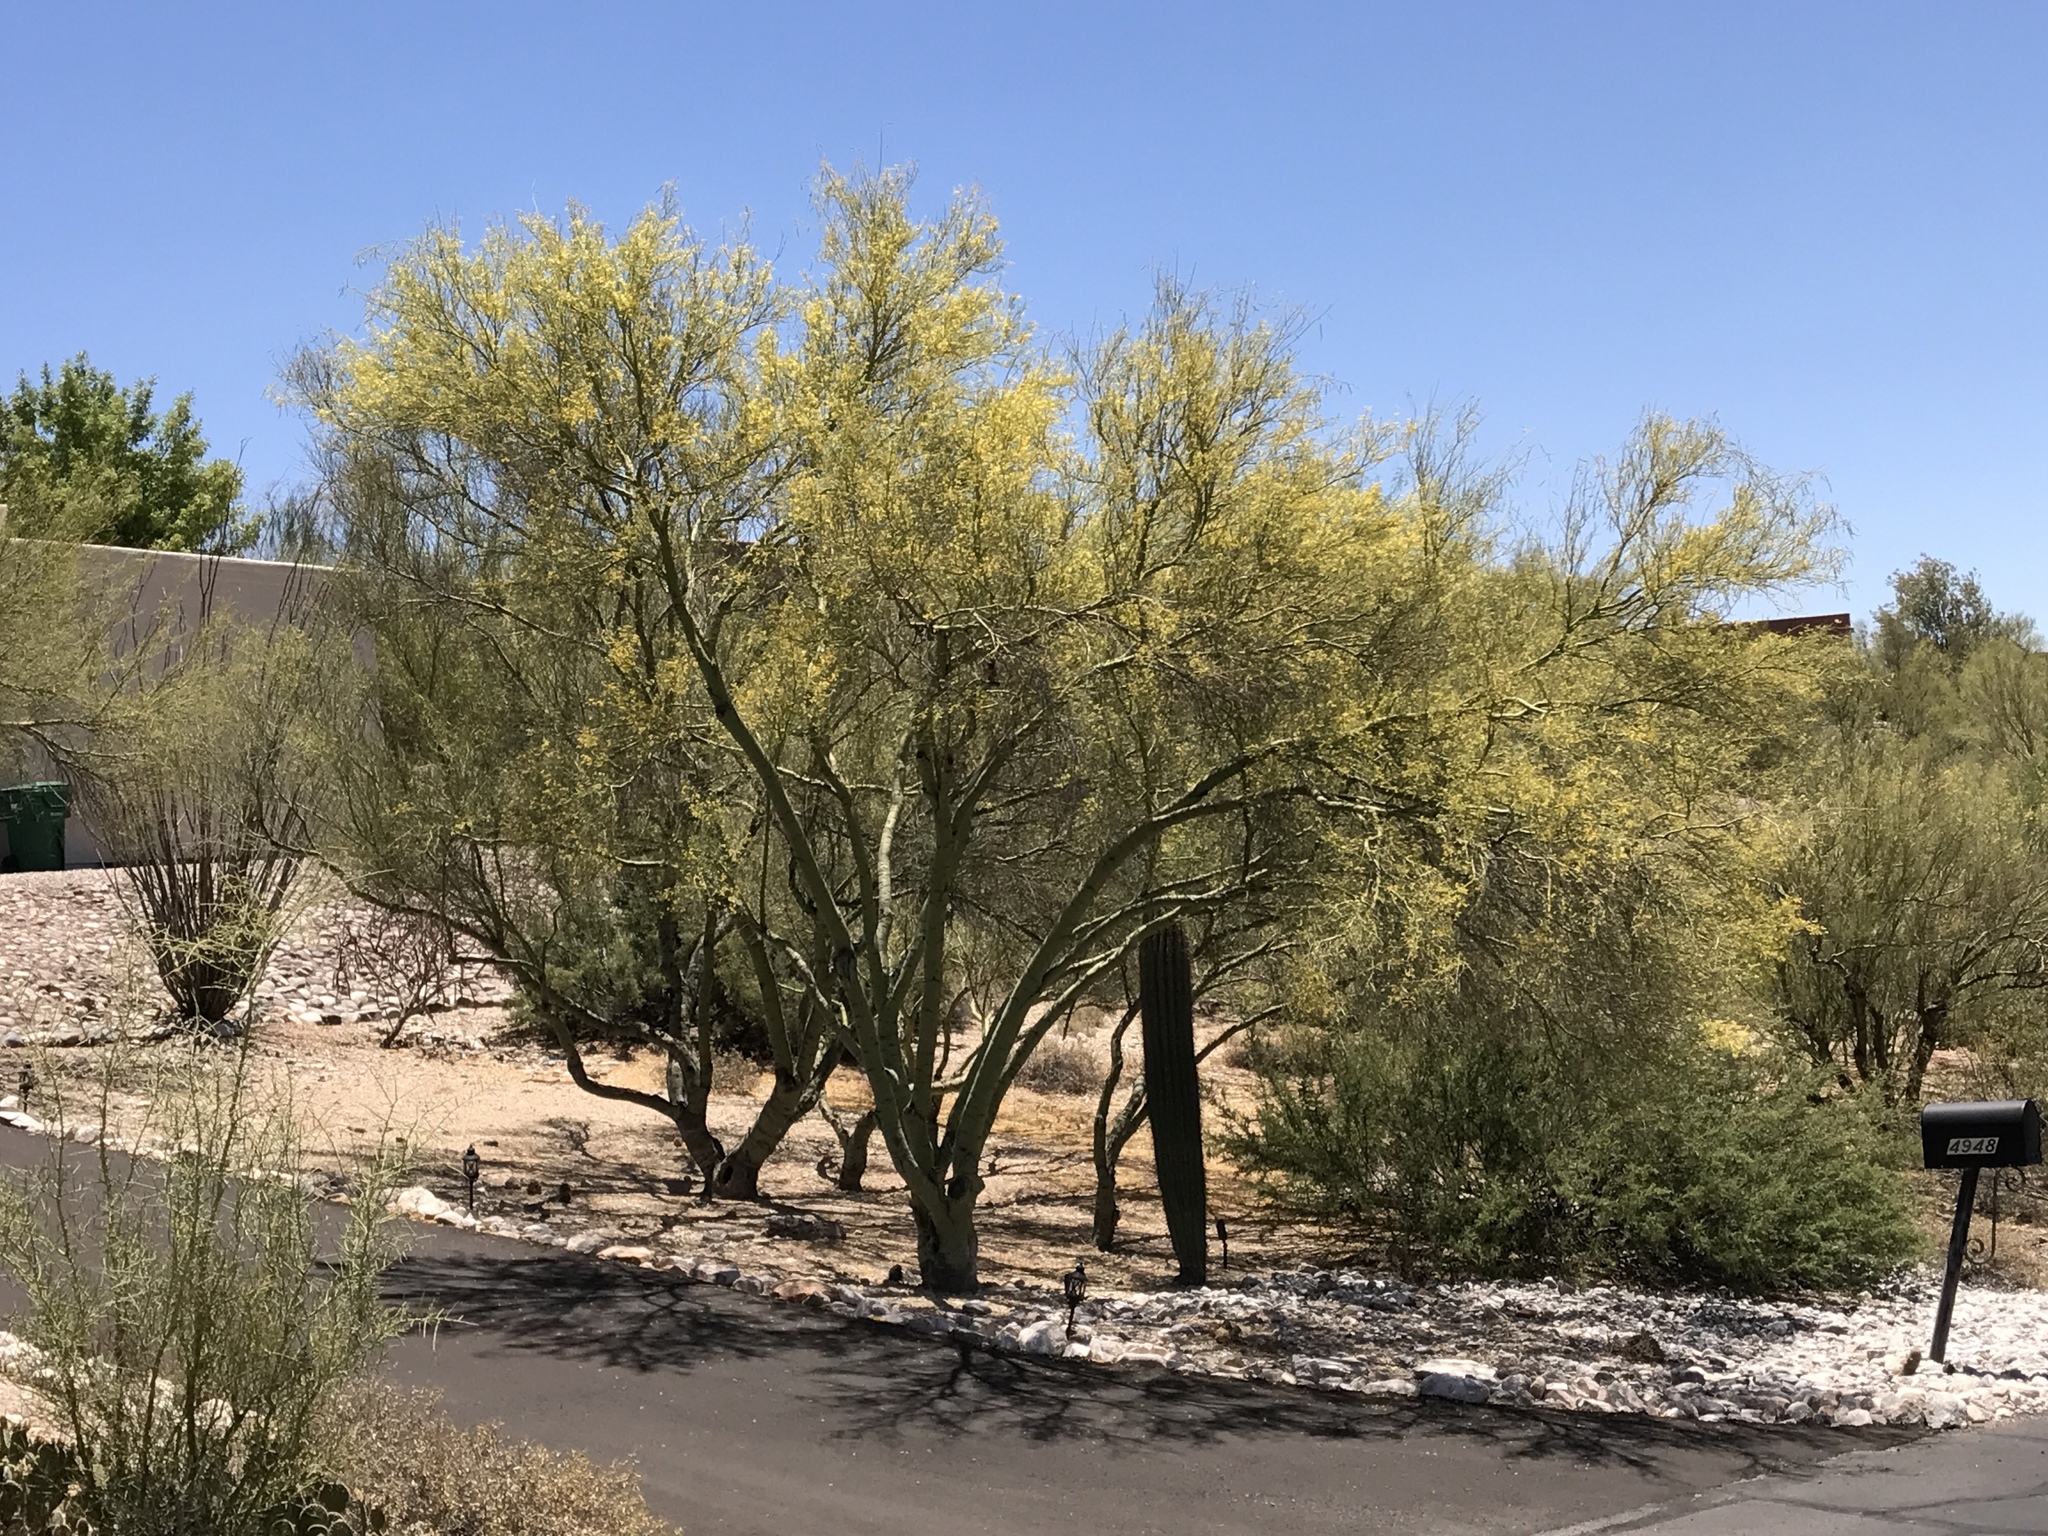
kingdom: Plantae
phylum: Tracheophyta
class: Magnoliopsida
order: Caryophyllales
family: Cactaceae
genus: Carnegiea
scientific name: Carnegiea gigantea
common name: Saguaro
